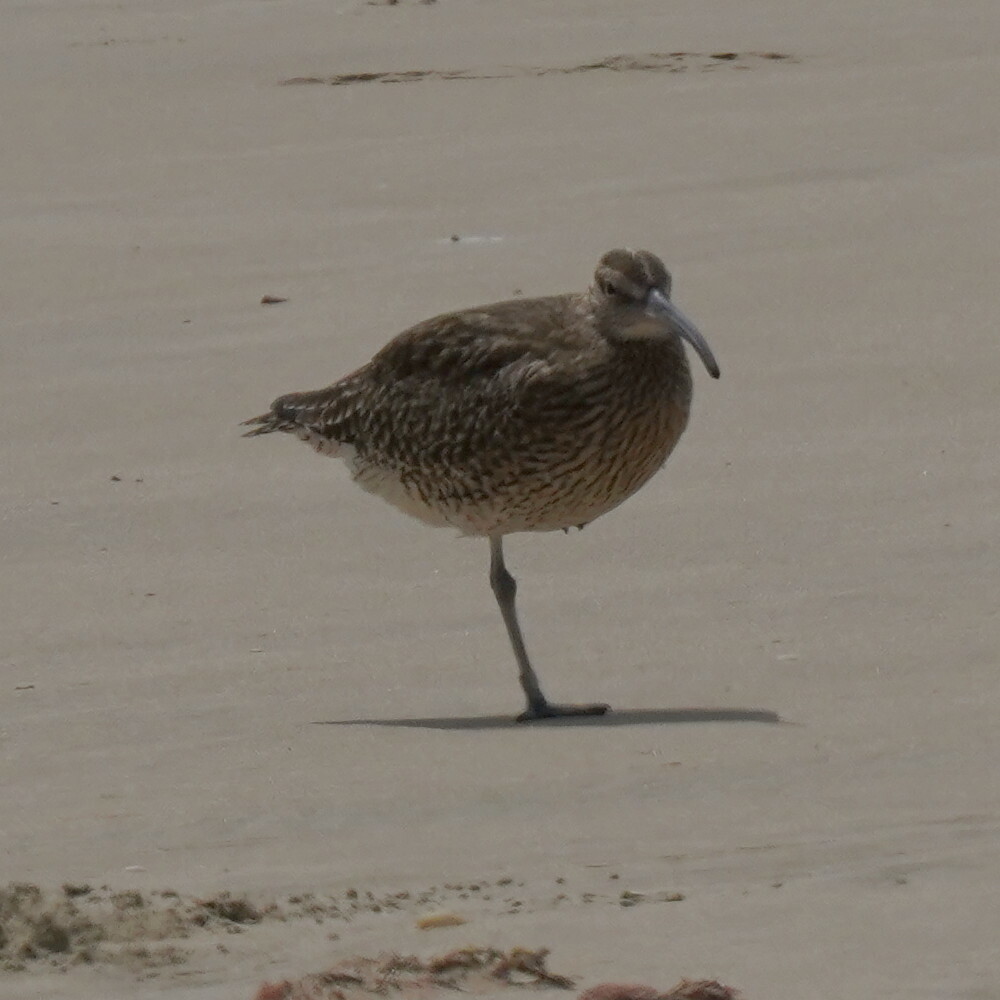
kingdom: Animalia
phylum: Chordata
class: Aves
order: Charadriiformes
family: Scolopacidae
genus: Numenius
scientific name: Numenius phaeopus
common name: Whimbrel
